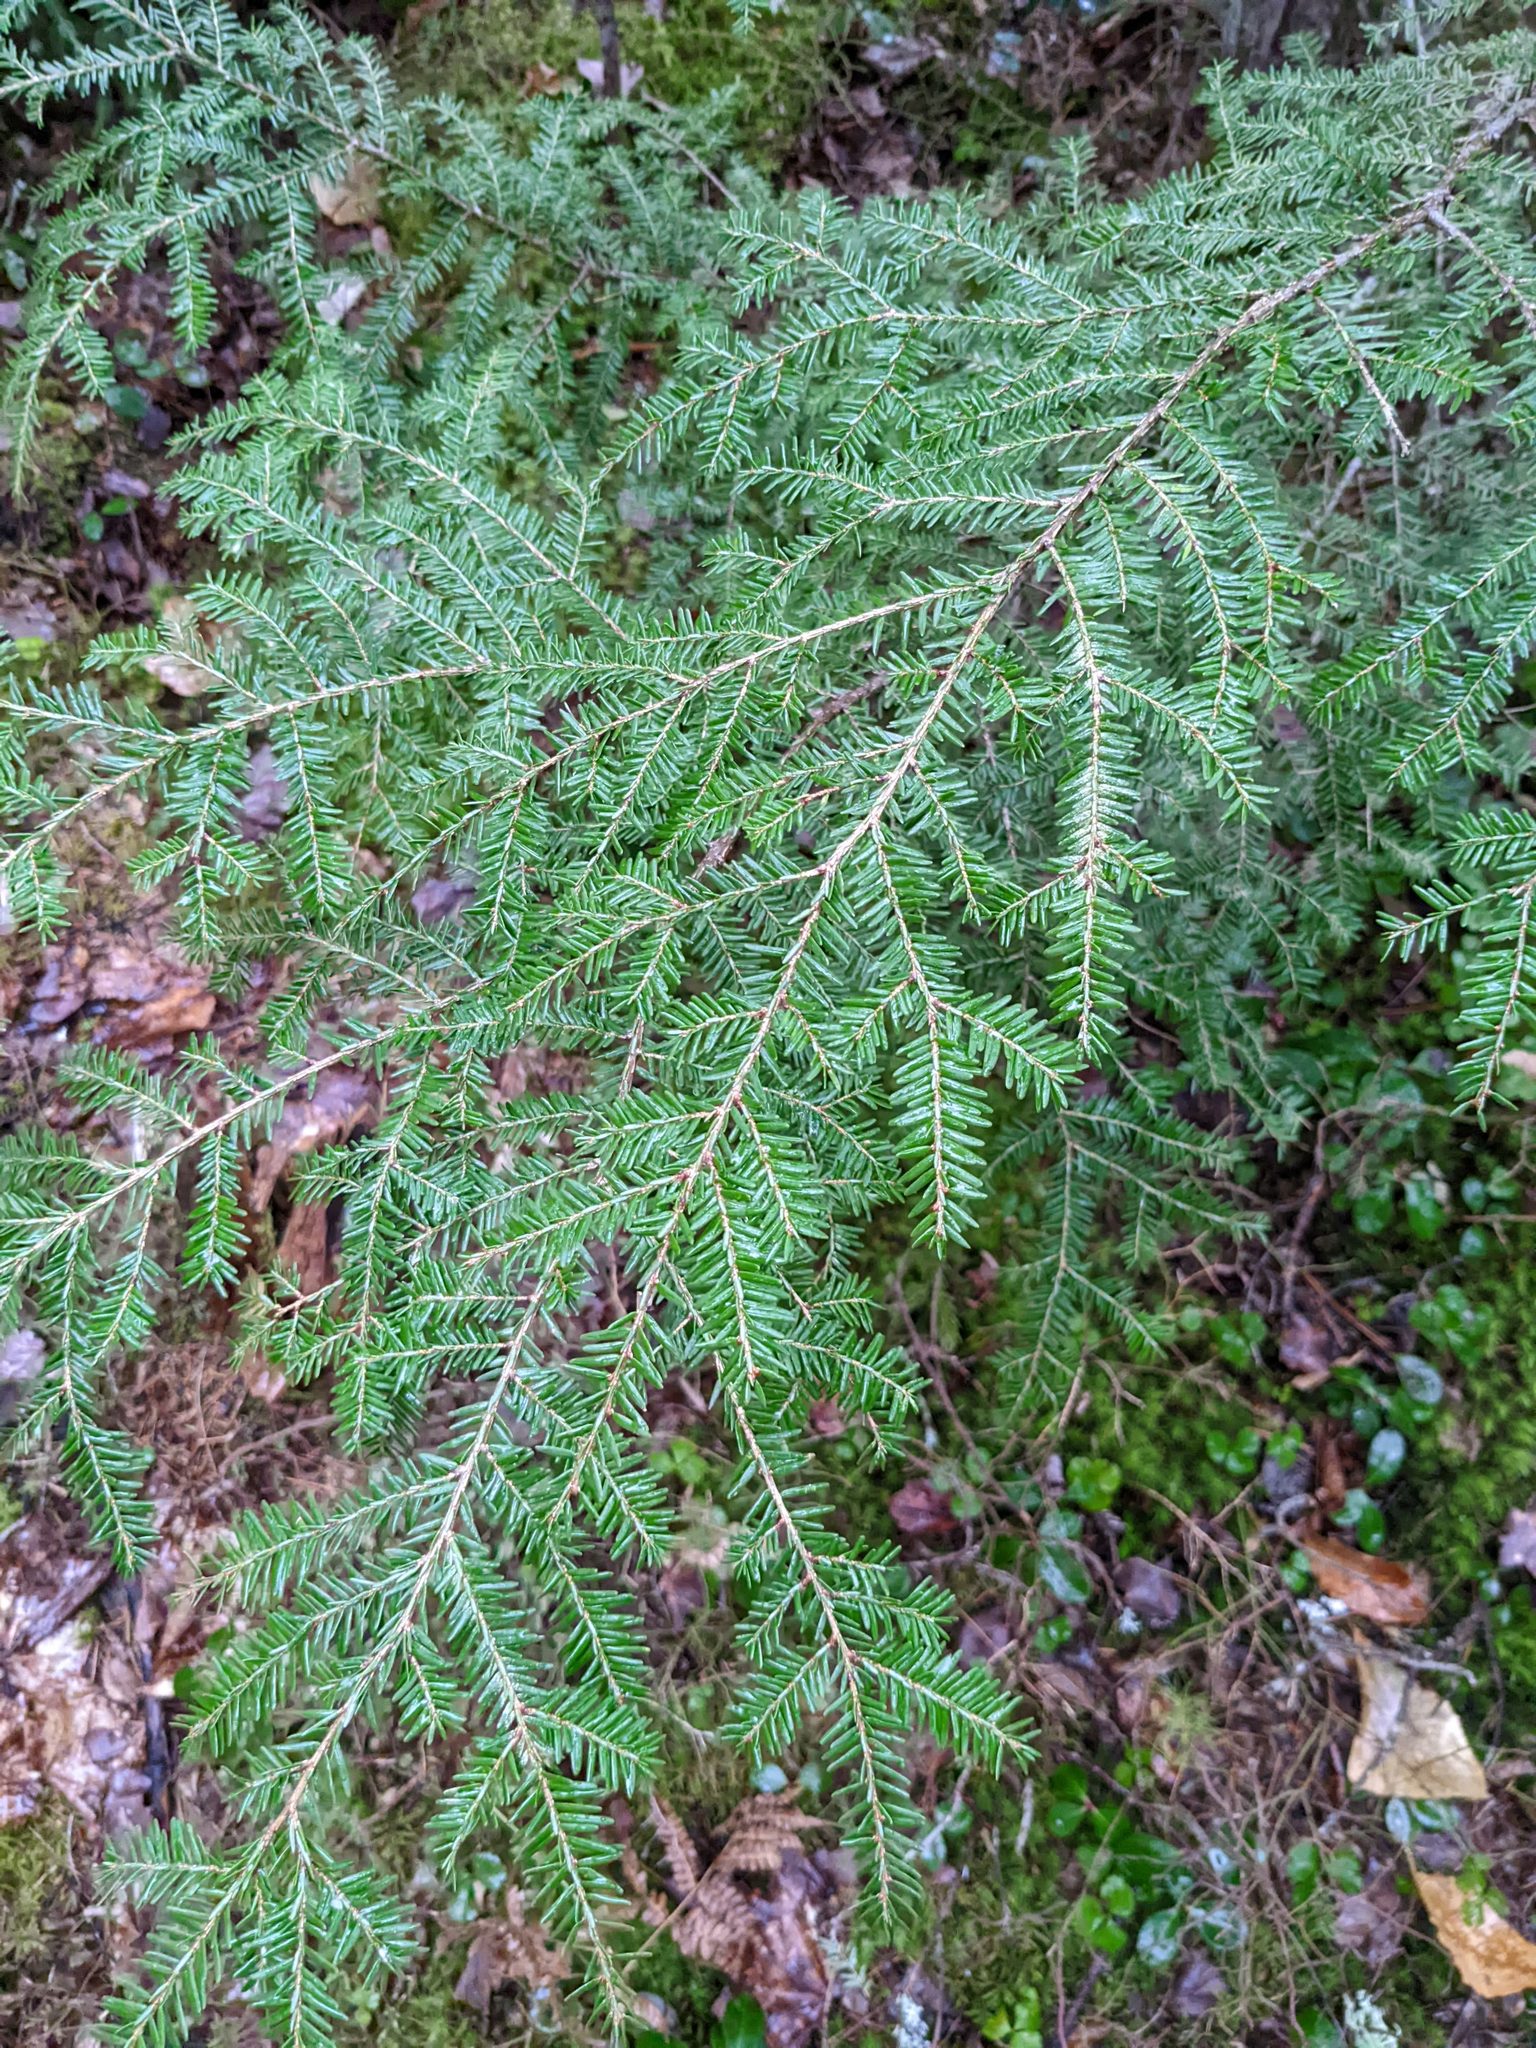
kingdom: Plantae
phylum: Tracheophyta
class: Pinopsida
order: Pinales
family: Pinaceae
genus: Tsuga
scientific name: Tsuga canadensis
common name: Eastern hemlock
